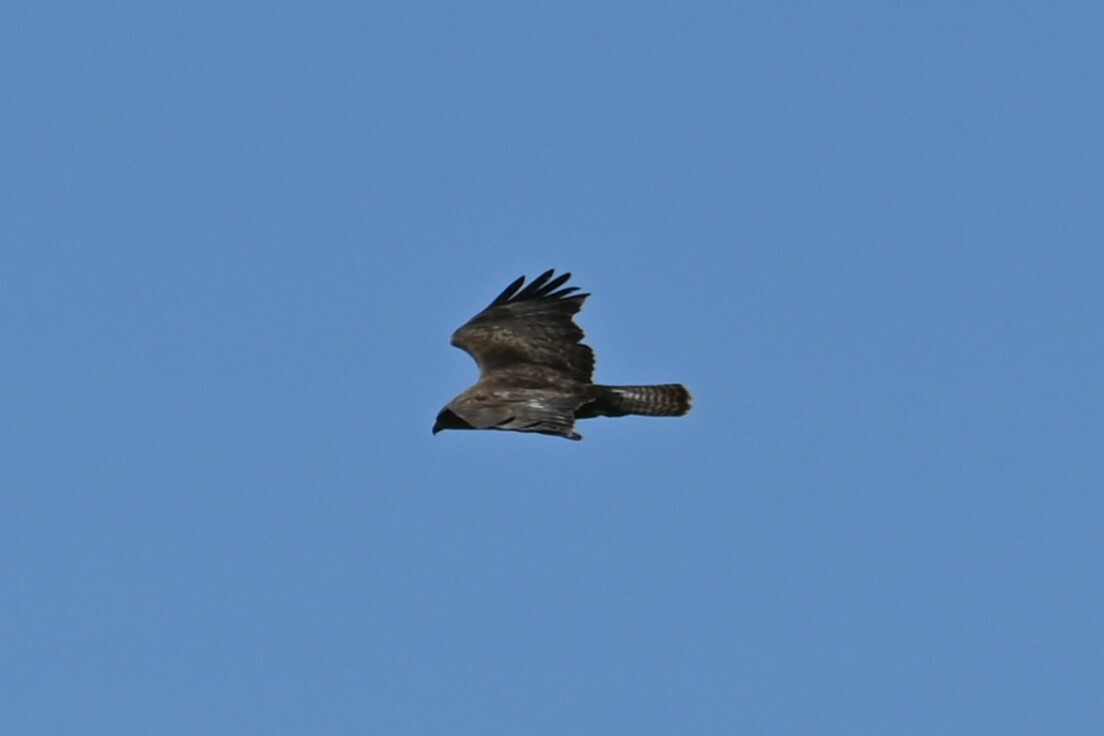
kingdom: Animalia
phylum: Chordata
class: Aves
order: Accipitriformes
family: Accipitridae
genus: Buteo
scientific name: Buteo buteo
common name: Common buzzard
